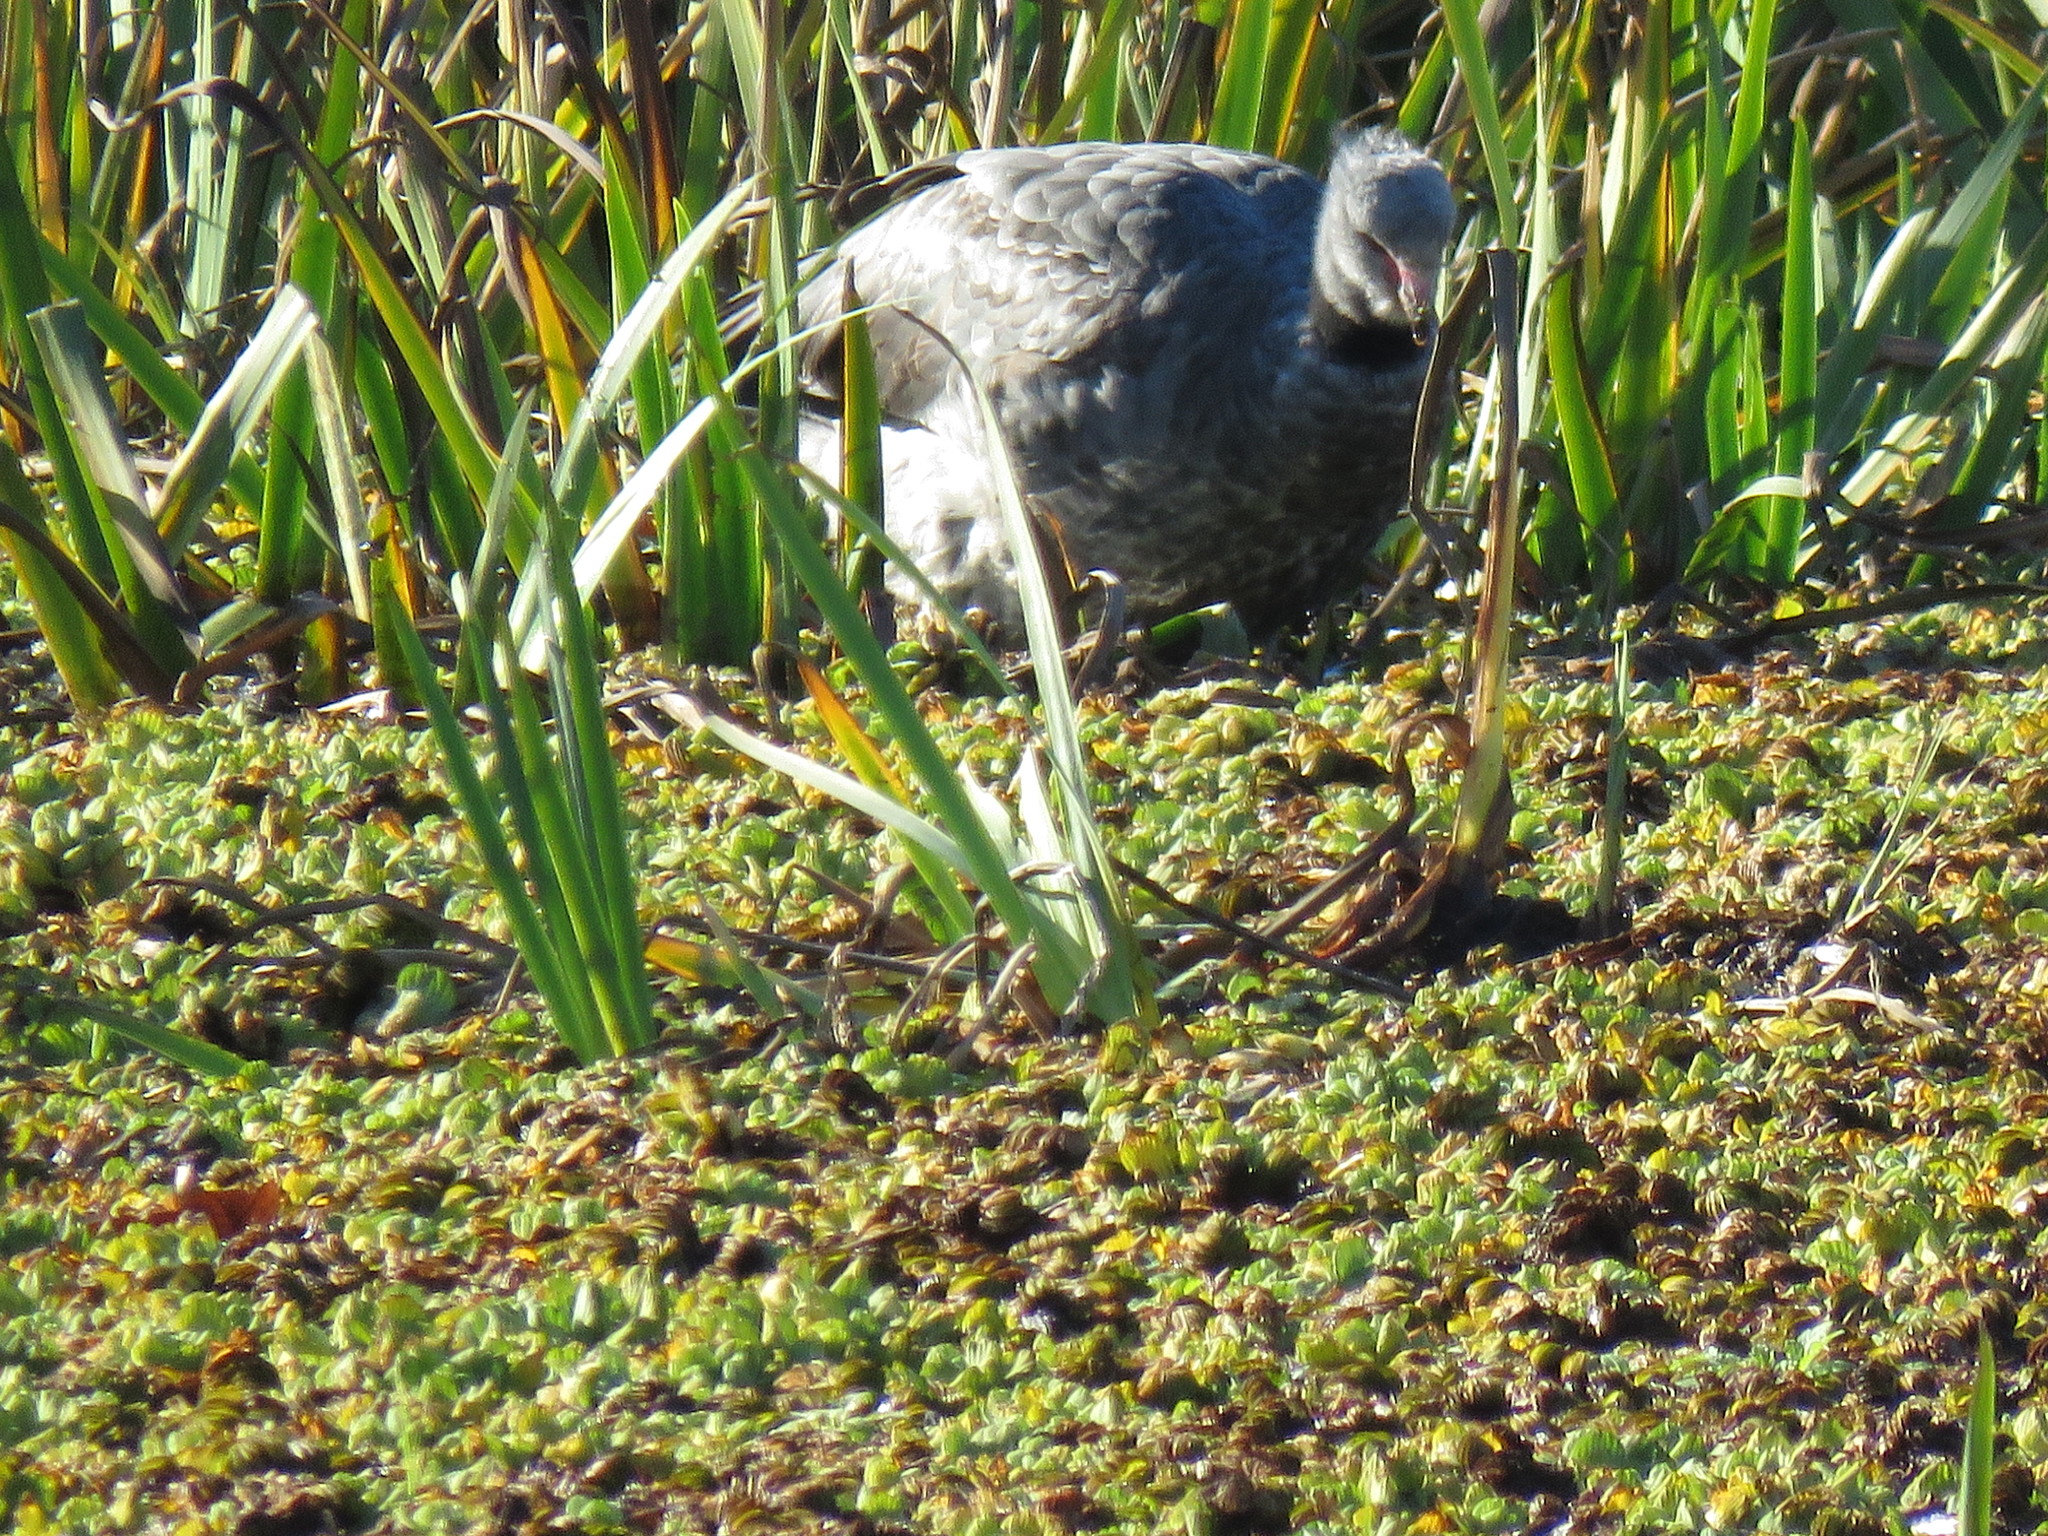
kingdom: Animalia
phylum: Chordata
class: Aves
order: Anseriformes
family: Anhimidae
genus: Chauna
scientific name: Chauna torquata
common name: Southern screamer
